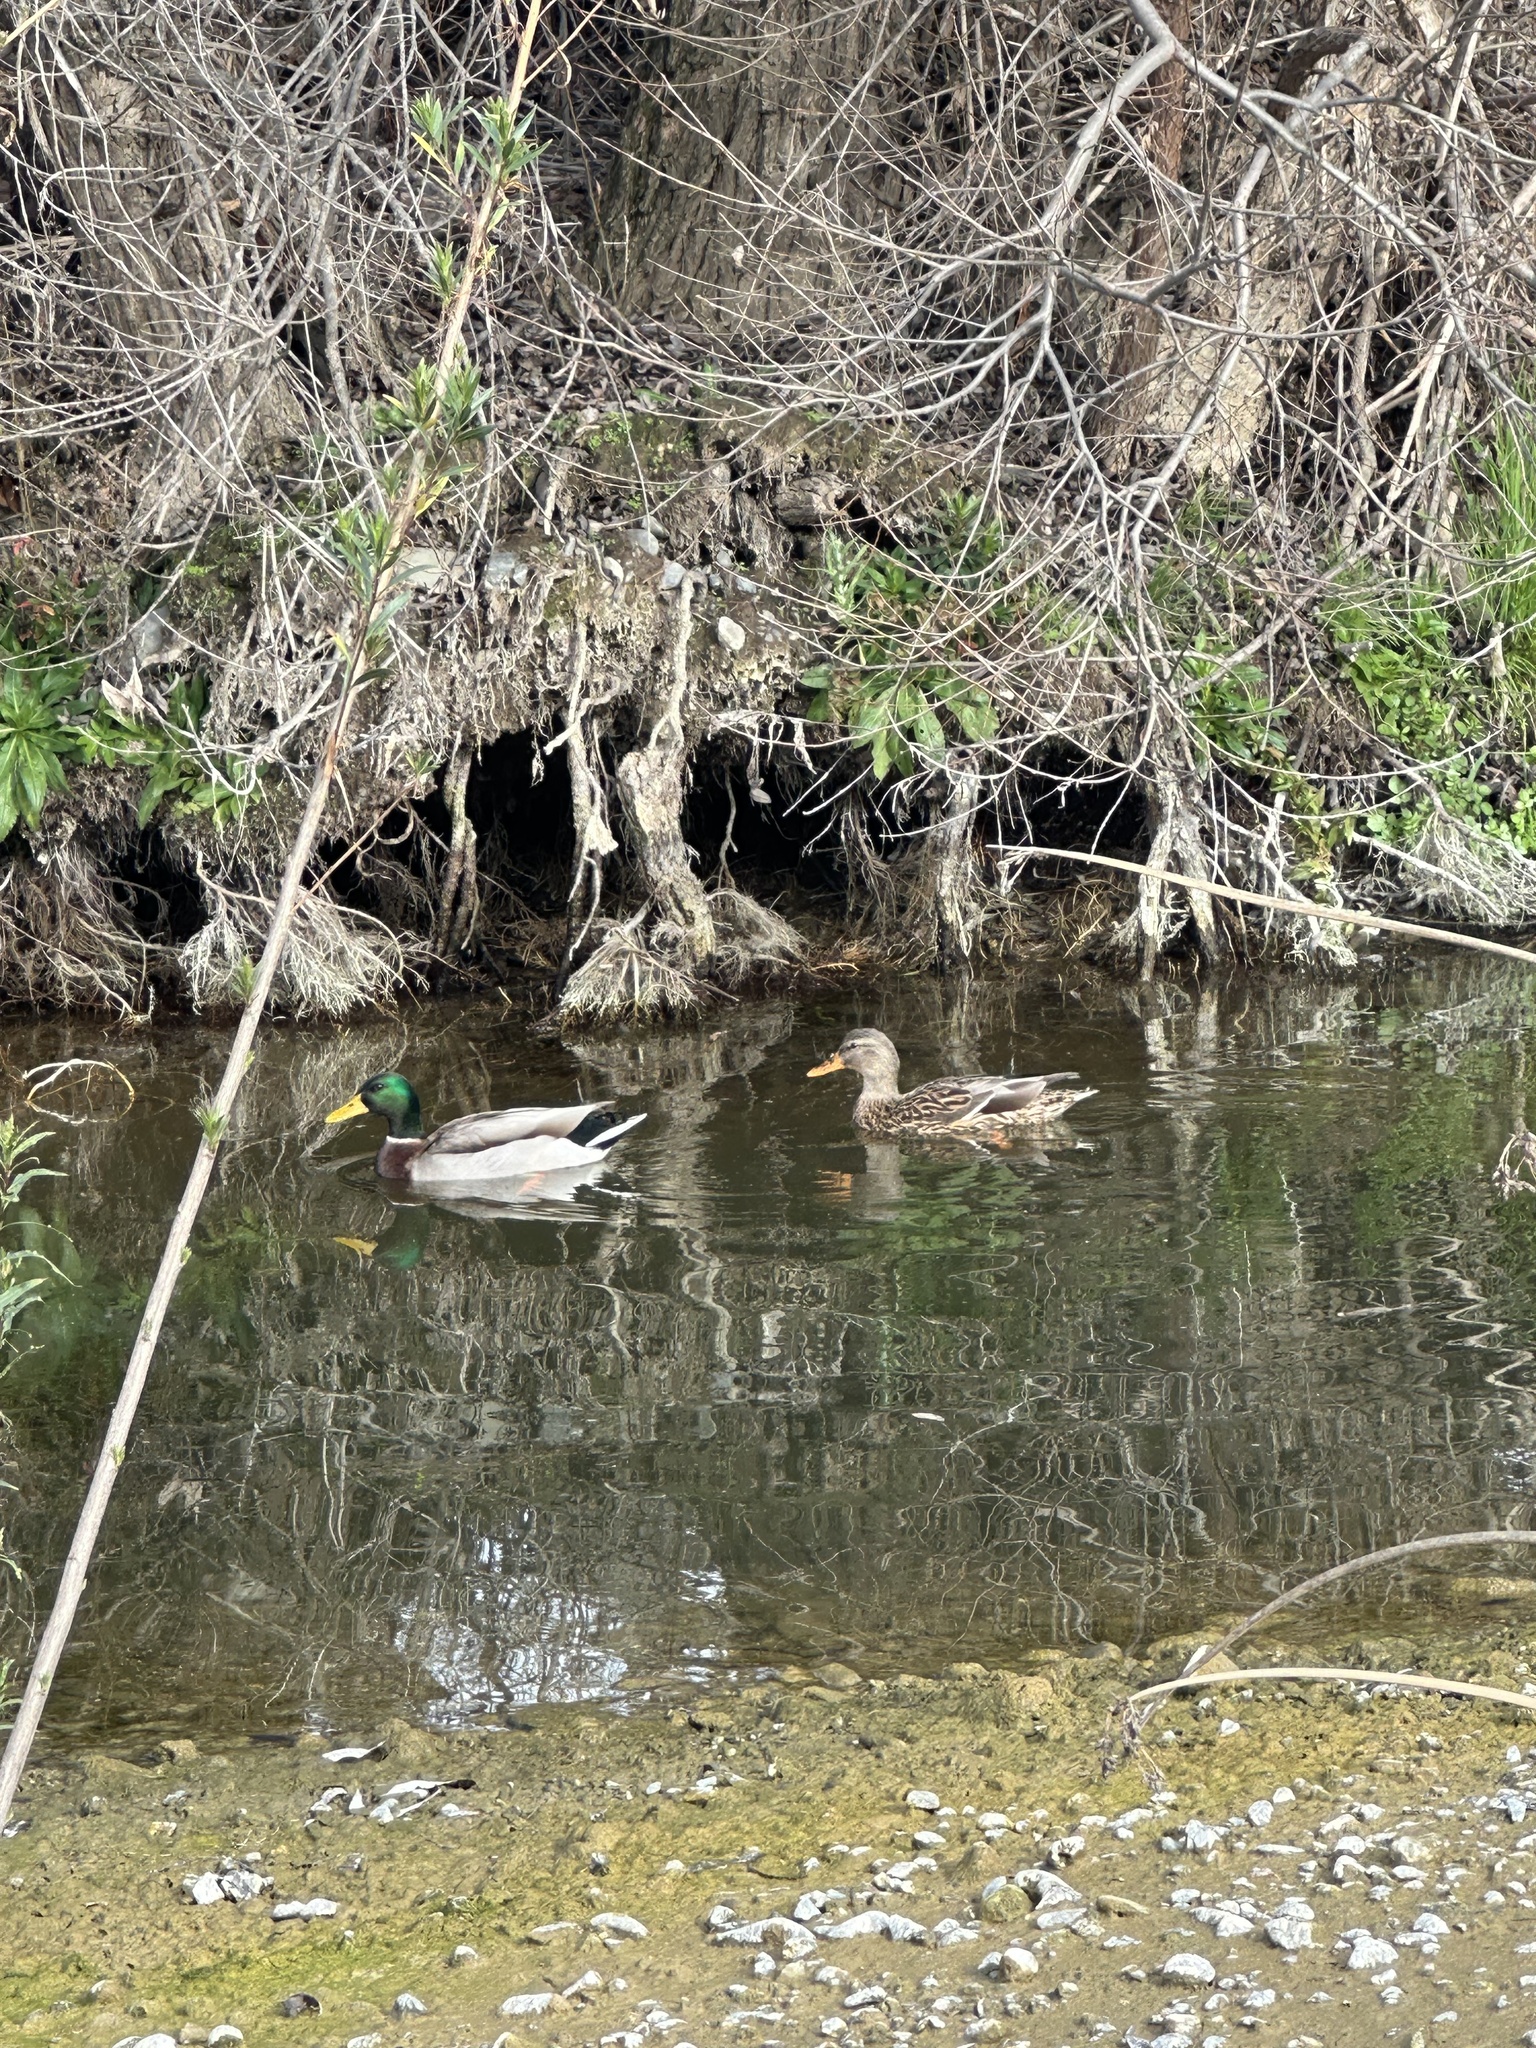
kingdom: Animalia
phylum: Chordata
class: Aves
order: Anseriformes
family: Anatidae
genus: Anas
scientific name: Anas platyrhynchos
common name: Mallard
